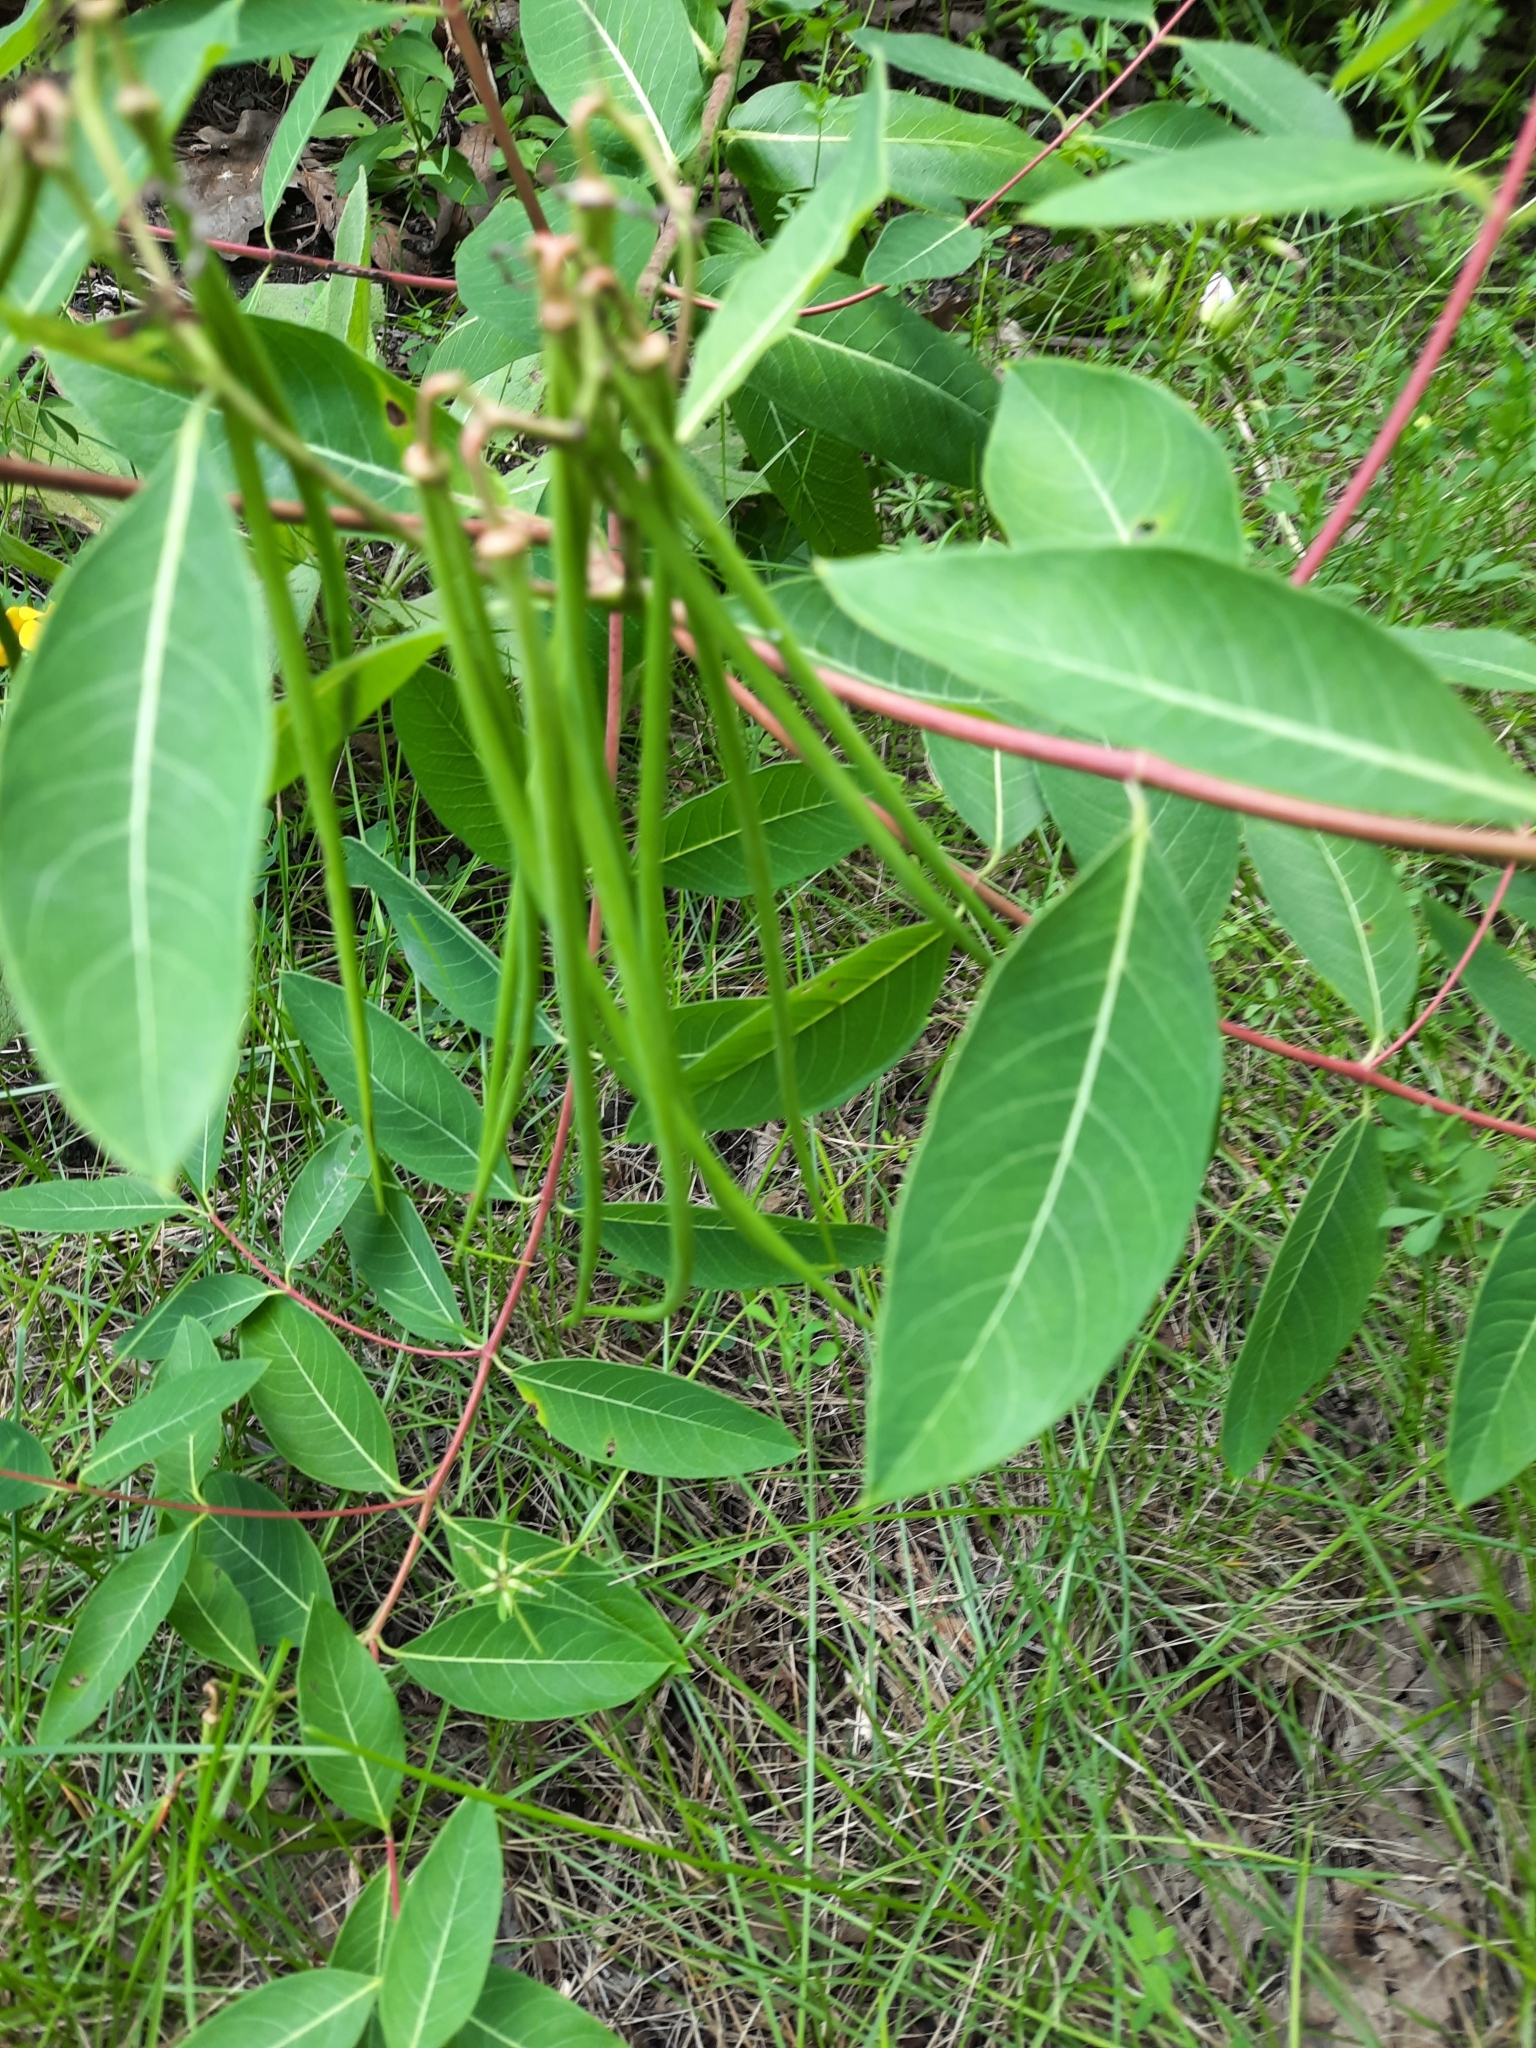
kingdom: Plantae
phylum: Tracheophyta
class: Magnoliopsida
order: Gentianales
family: Apocynaceae
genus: Apocynum
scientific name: Apocynum cannabinum
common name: Hemp dogbane
